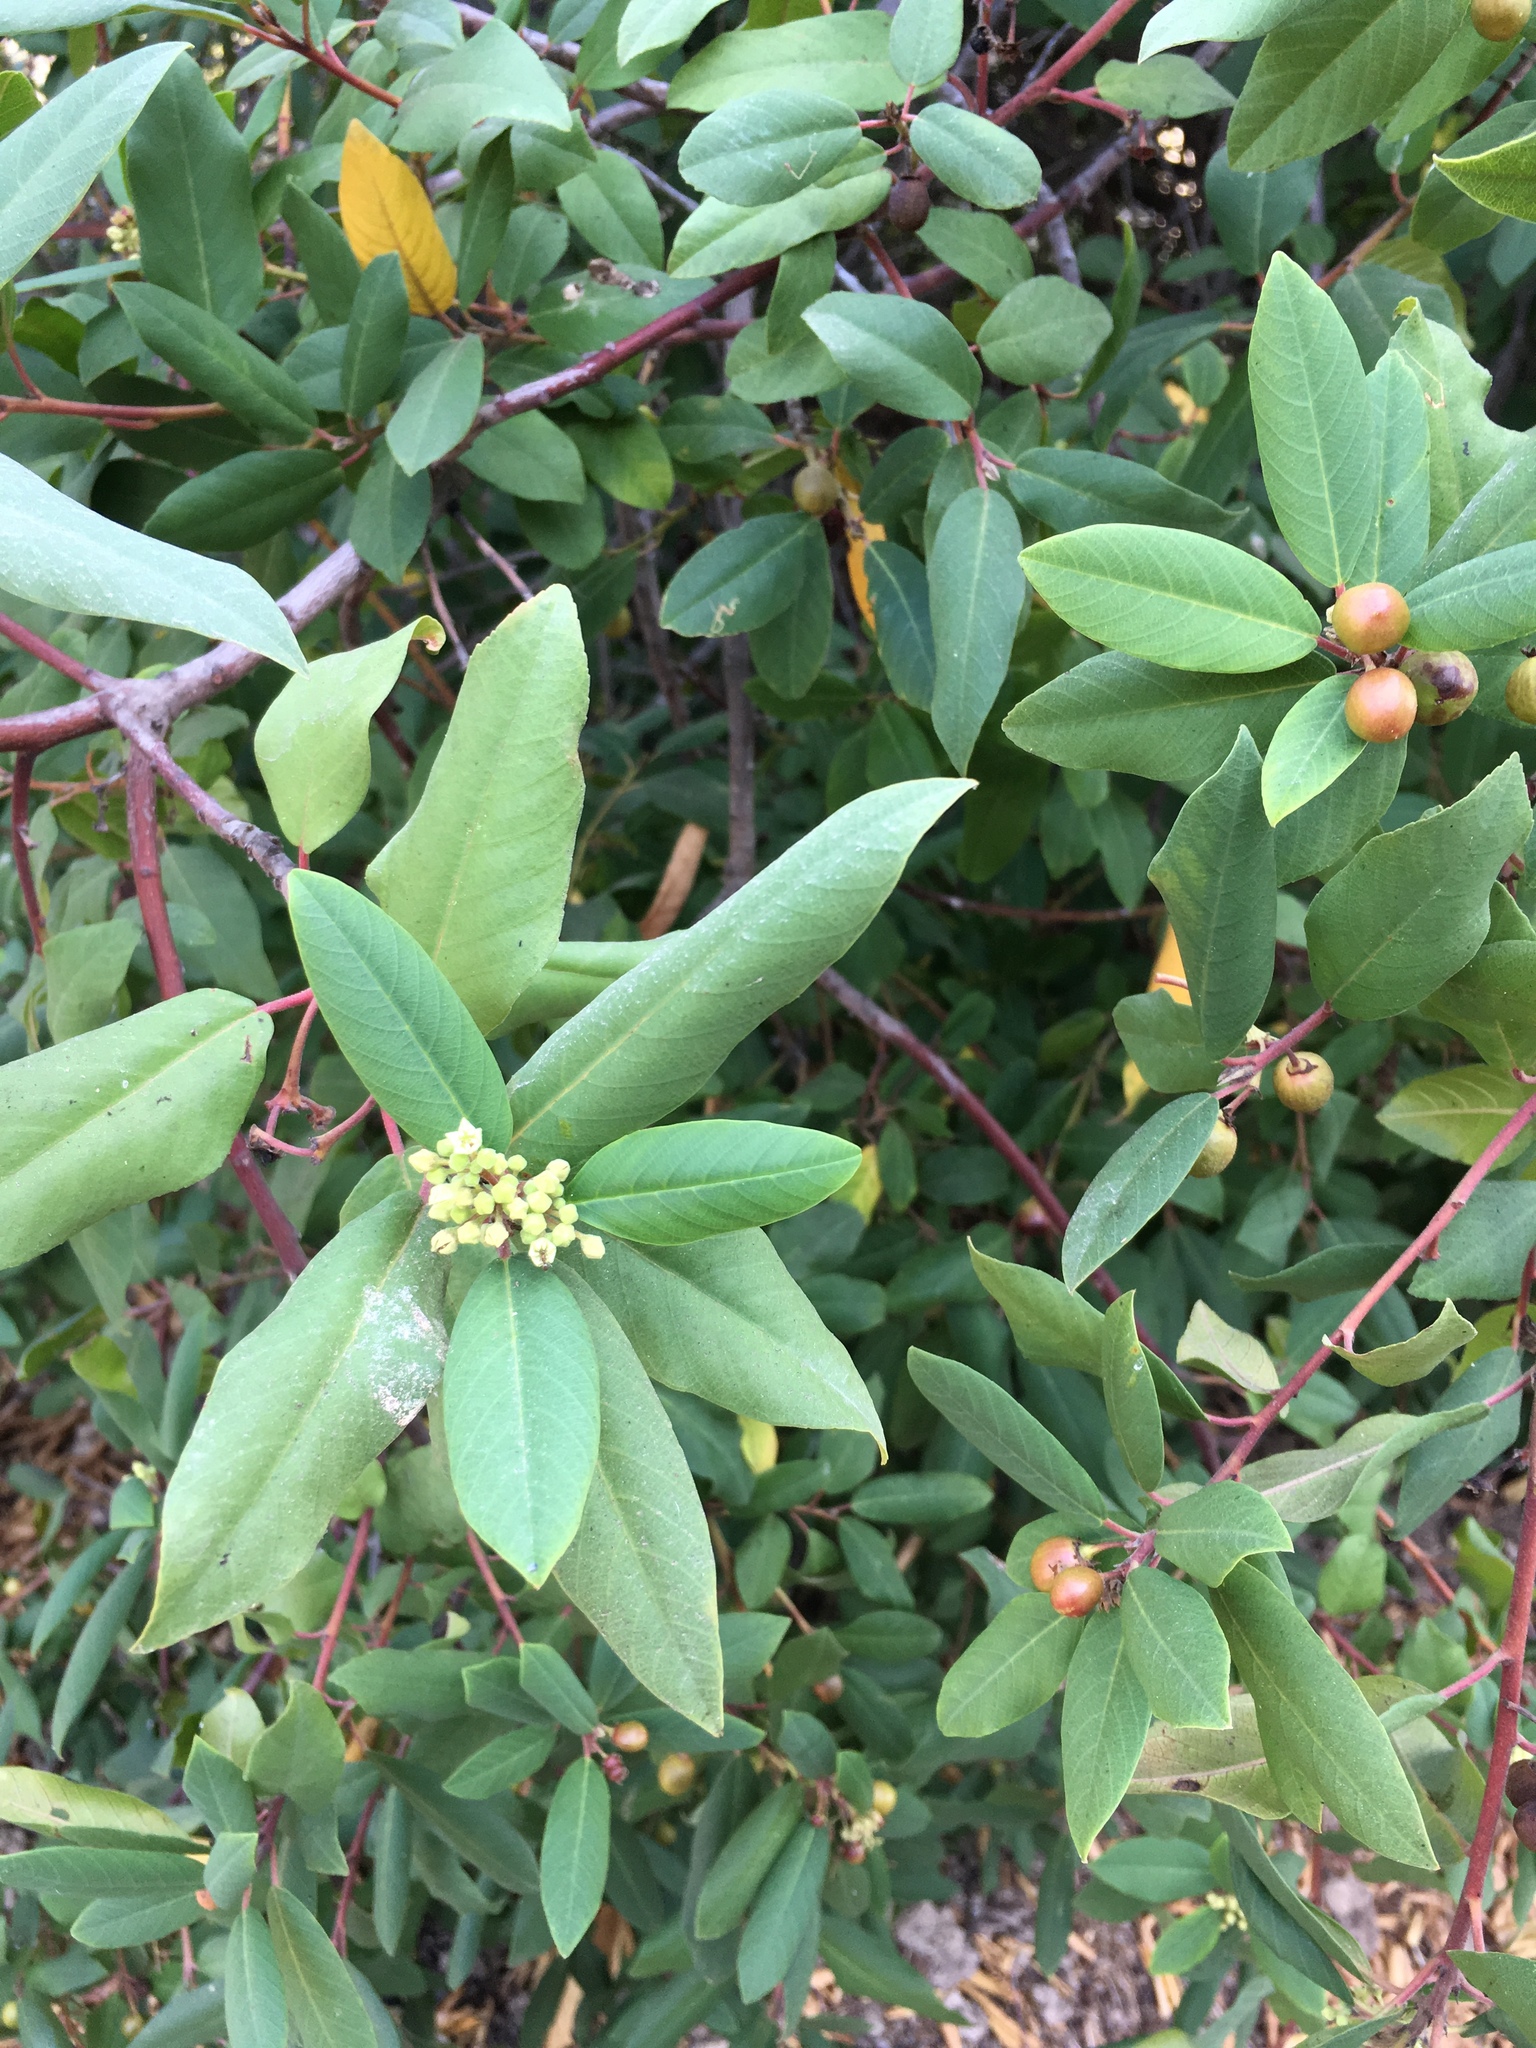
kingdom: Plantae
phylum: Tracheophyta
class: Magnoliopsida
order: Rosales
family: Rhamnaceae
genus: Frangula
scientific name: Frangula californica
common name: California buckthorn
